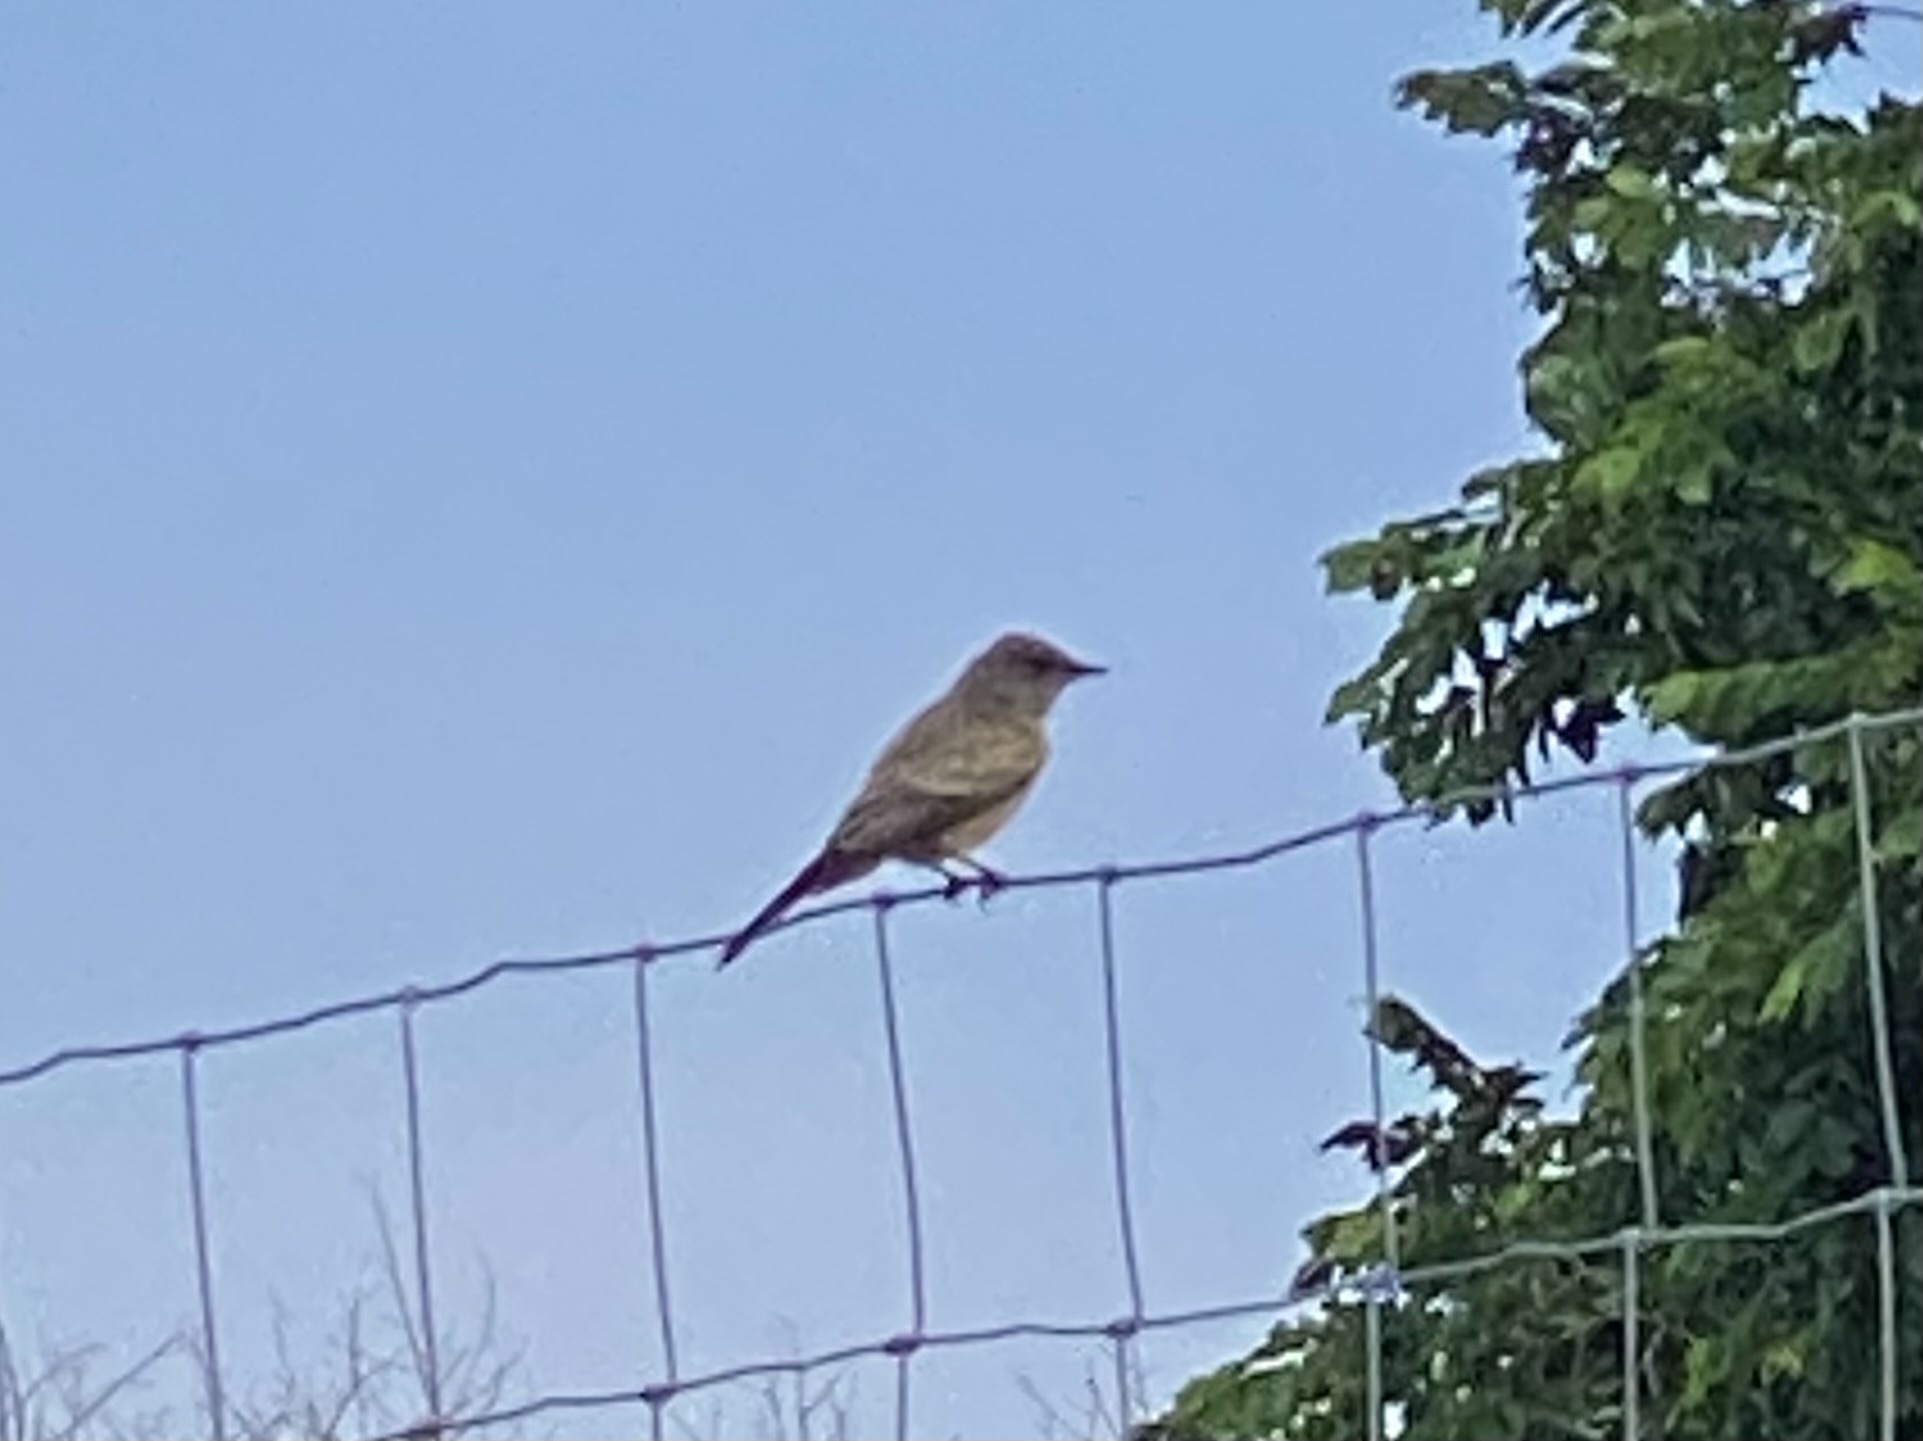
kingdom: Animalia
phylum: Chordata
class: Aves
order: Passeriformes
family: Tyrannidae
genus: Sayornis
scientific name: Sayornis saya
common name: Say's phoebe
